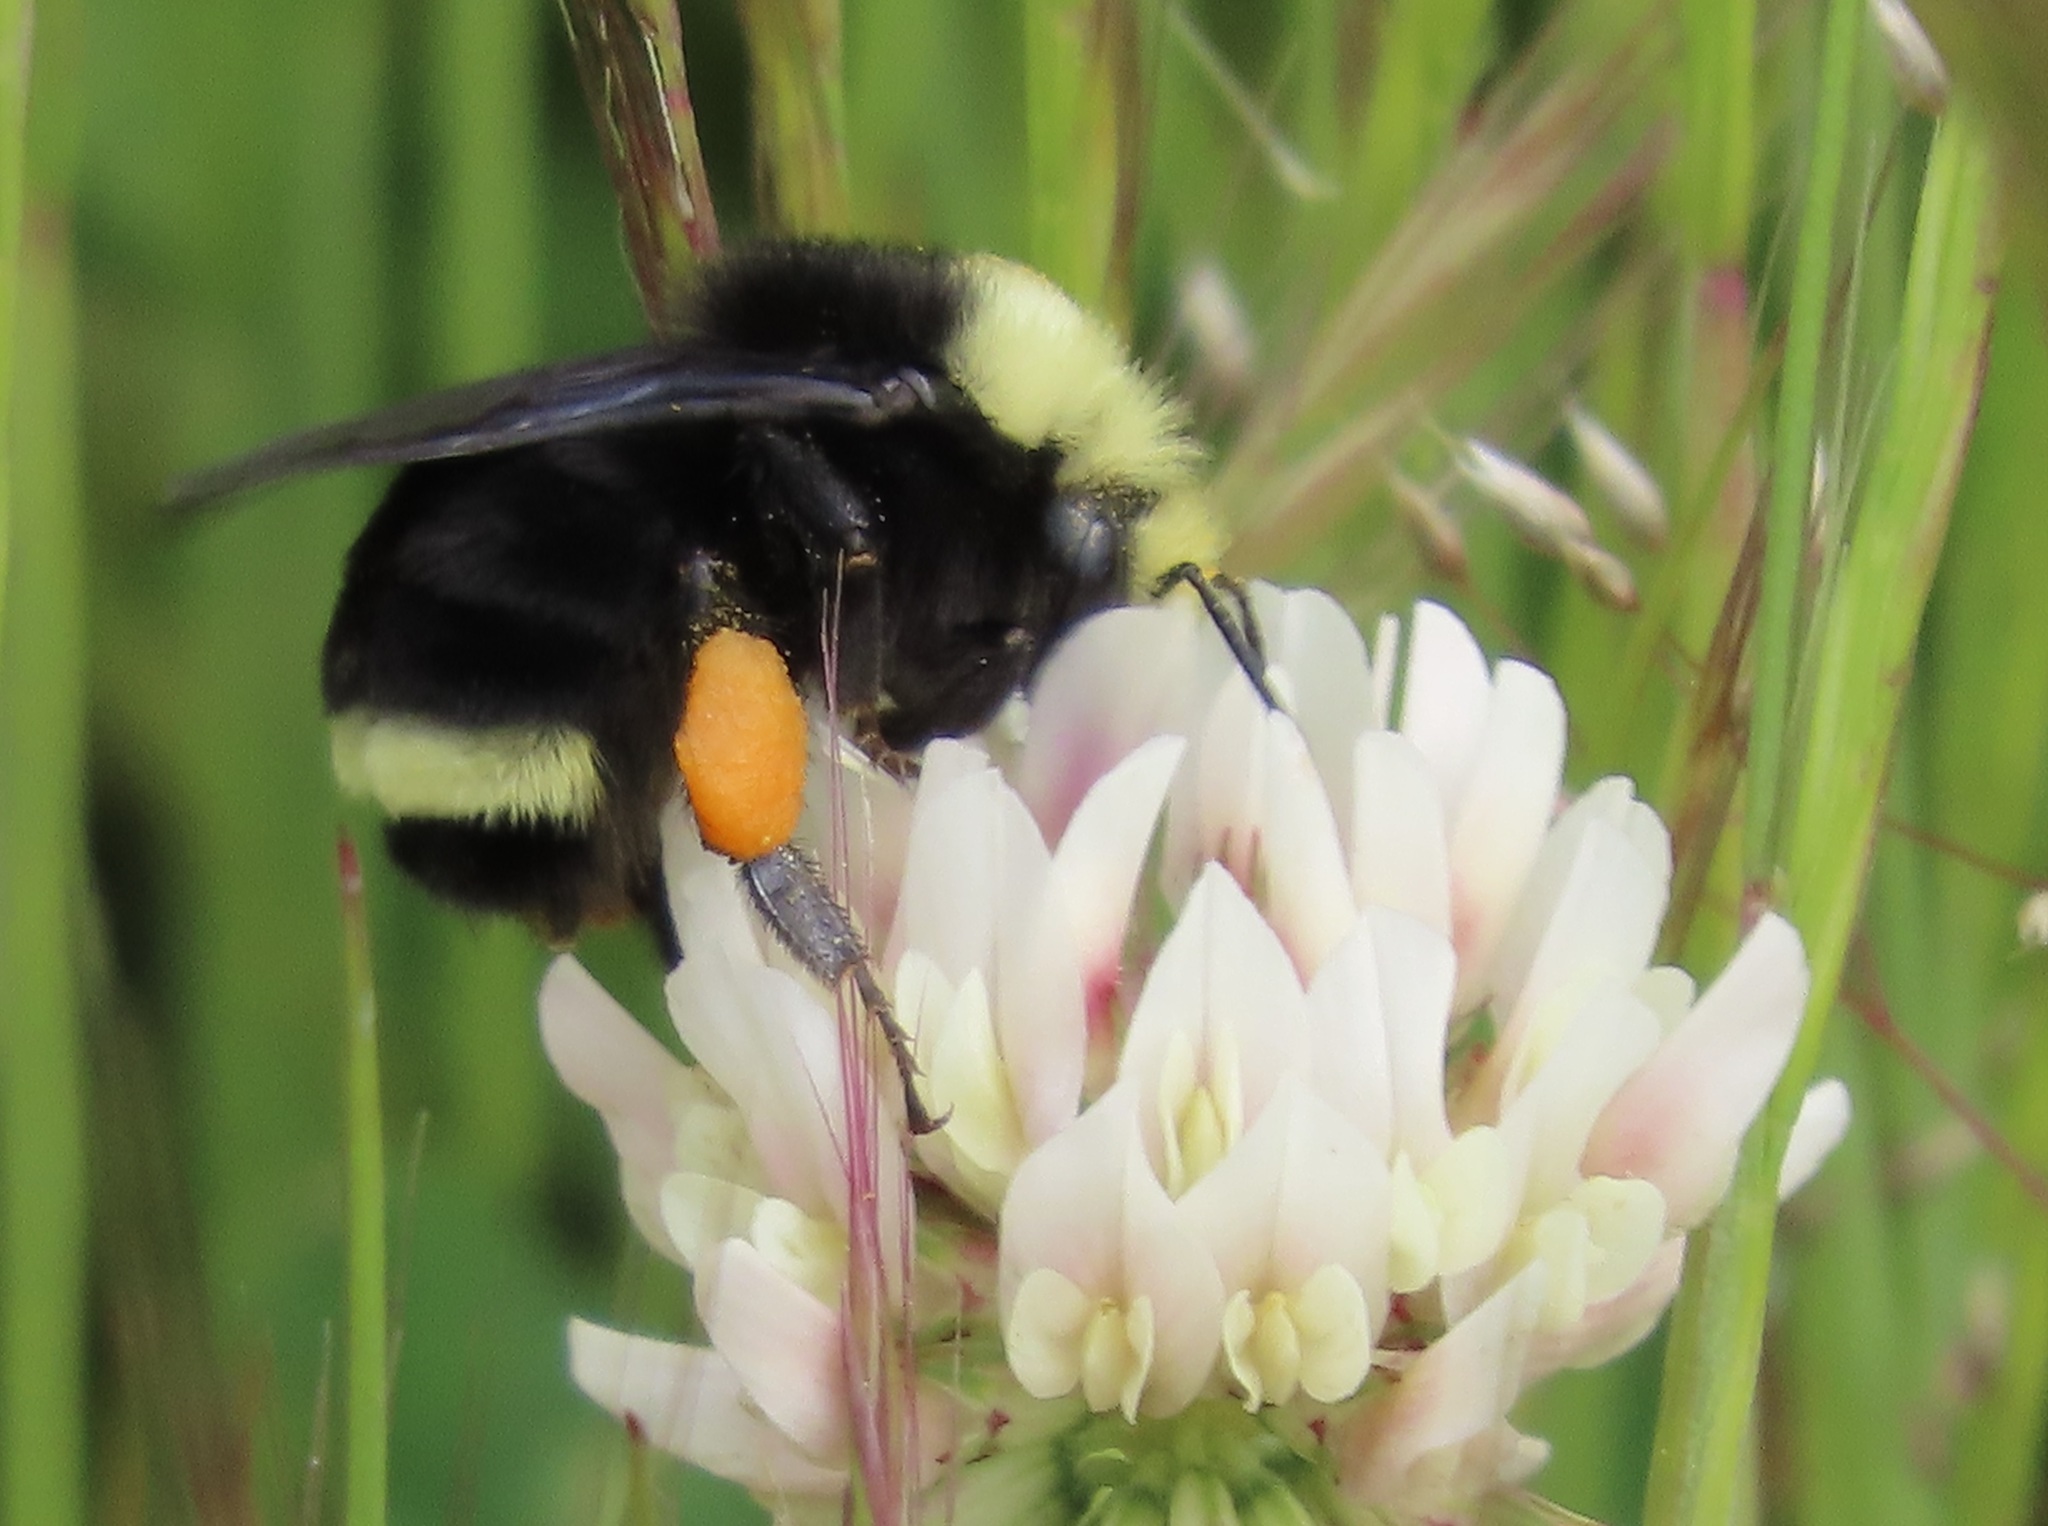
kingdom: Animalia
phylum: Arthropoda
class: Insecta
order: Hymenoptera
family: Apidae
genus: Bombus
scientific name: Bombus vosnesenskii
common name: Vosnesensky bumble bee
